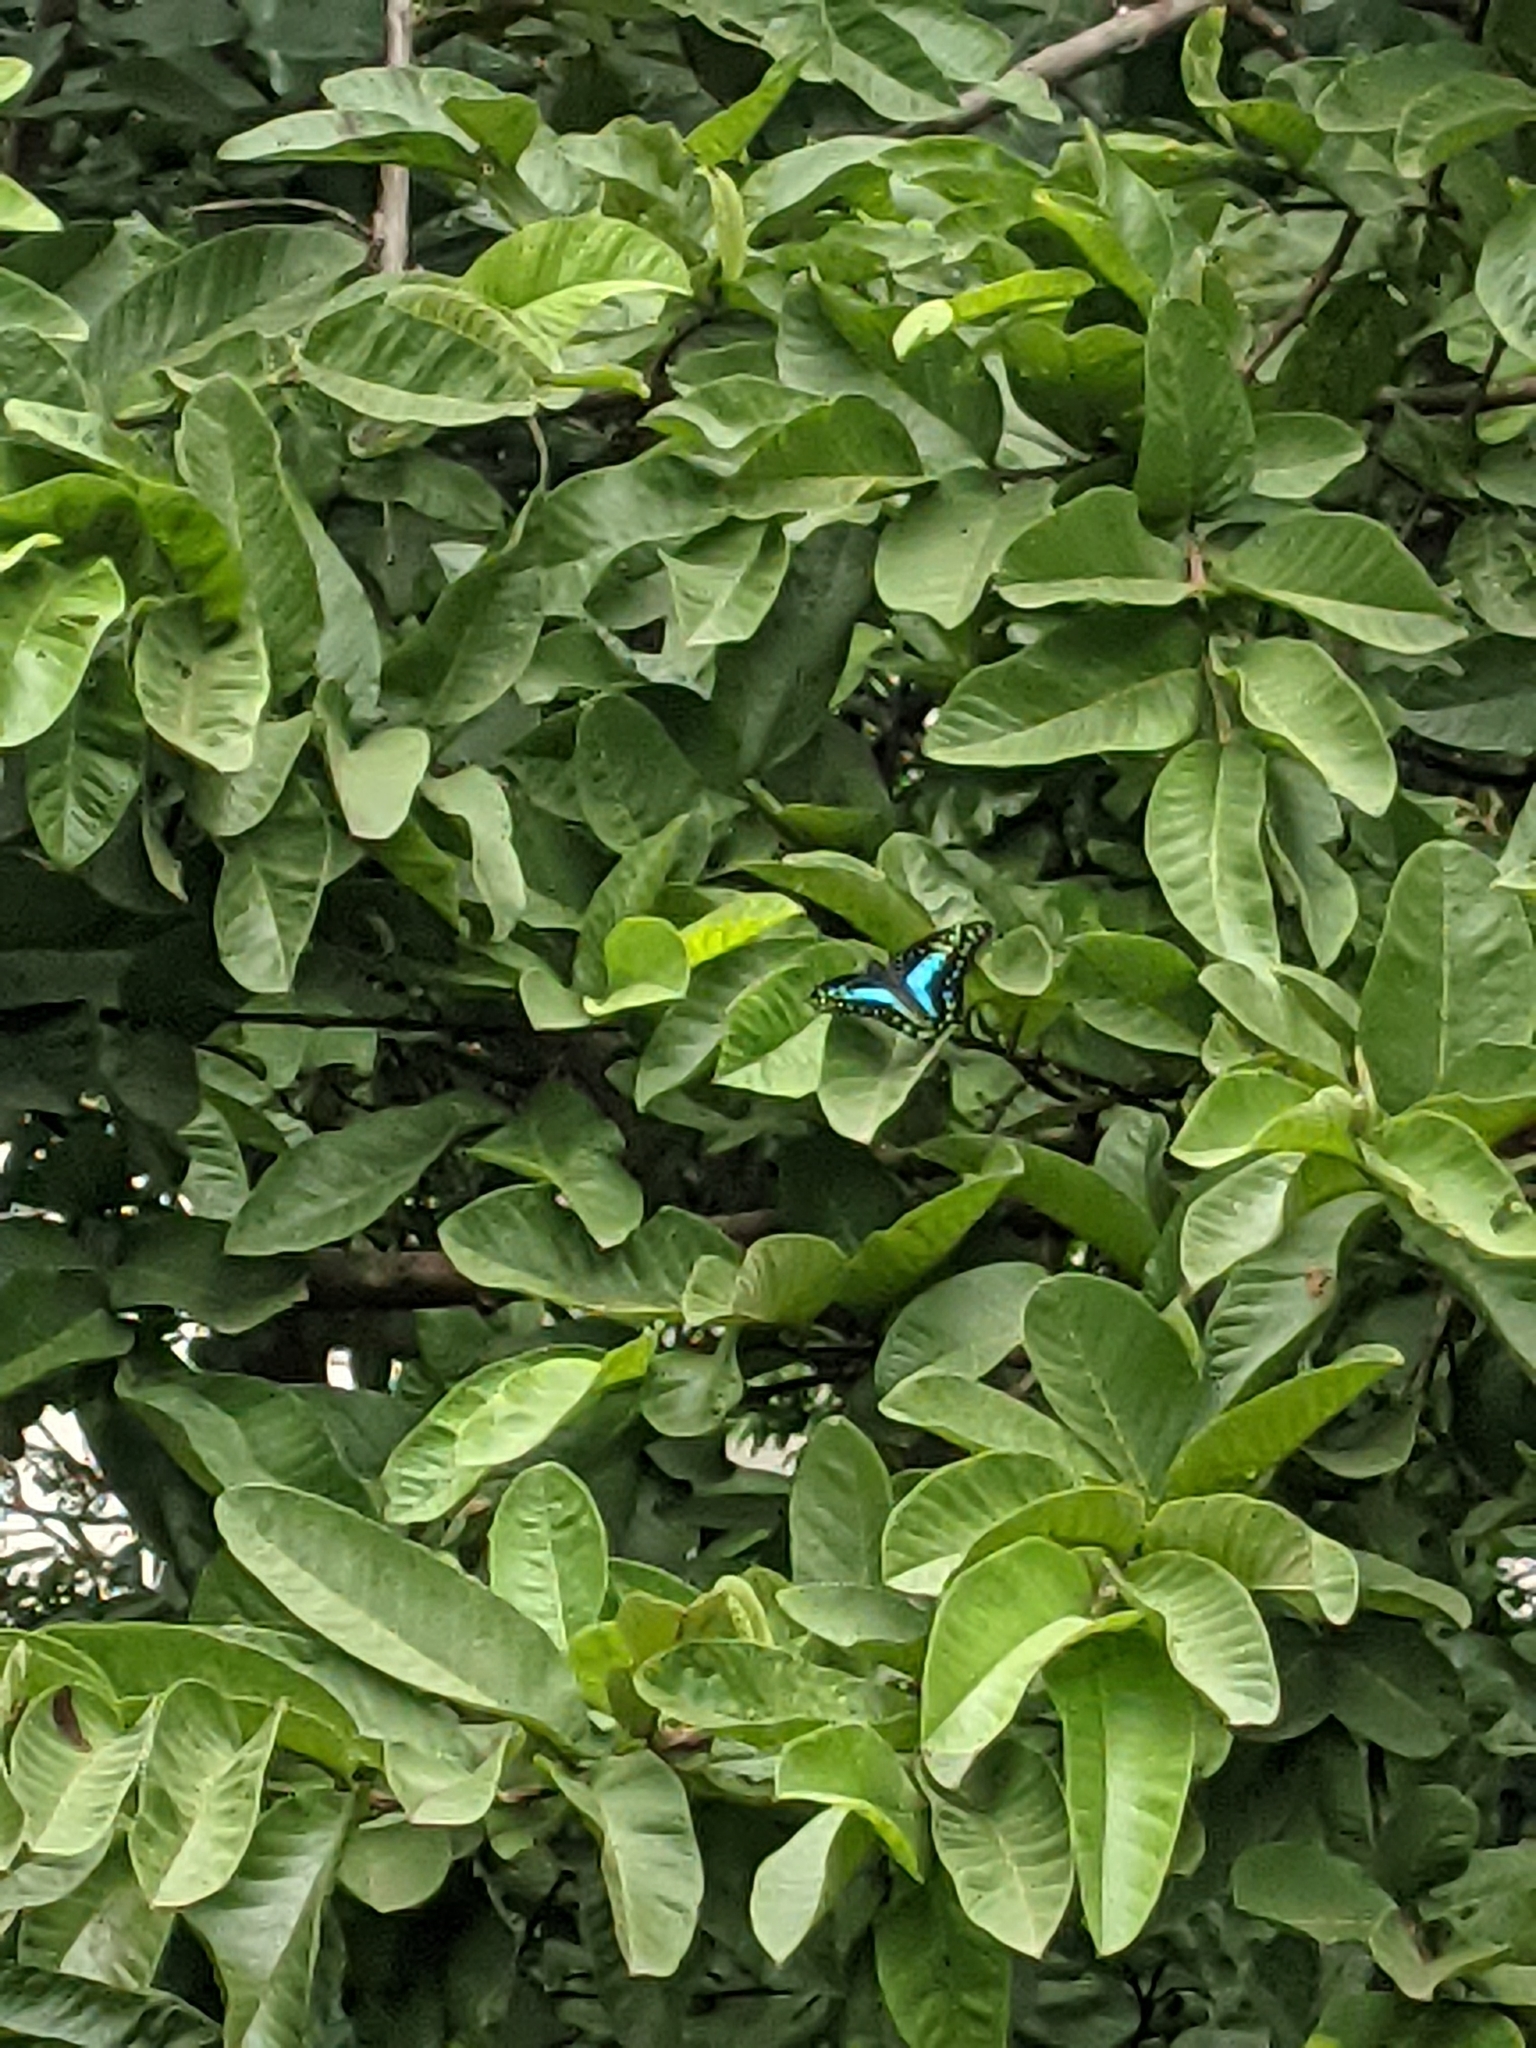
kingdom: Animalia
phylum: Arthropoda
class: Insecta
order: Lepidoptera
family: Papilionidae
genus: Graphium
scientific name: Graphium doson
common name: Common jay
